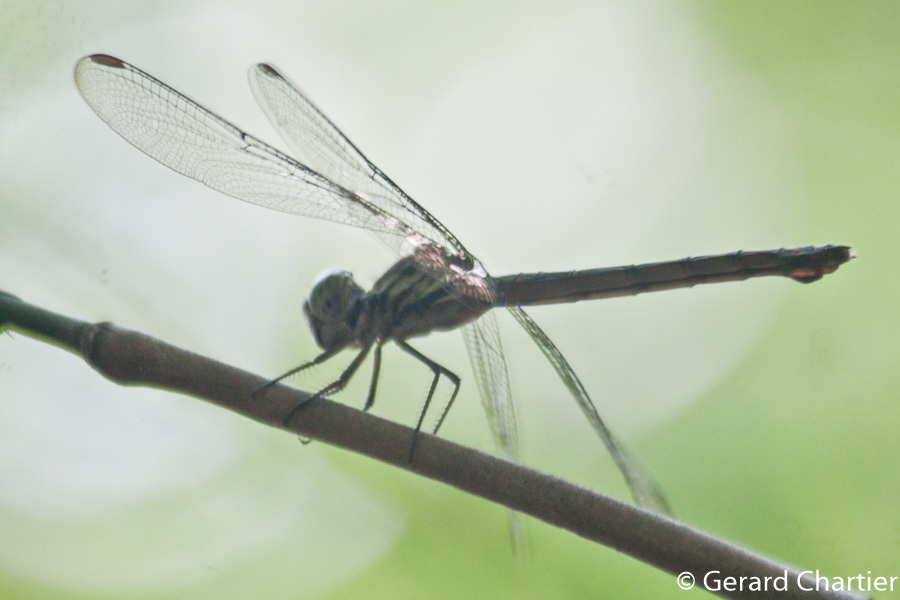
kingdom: Animalia
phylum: Arthropoda
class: Insecta
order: Odonata
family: Libellulidae
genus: Cratilla
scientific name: Cratilla lineata
